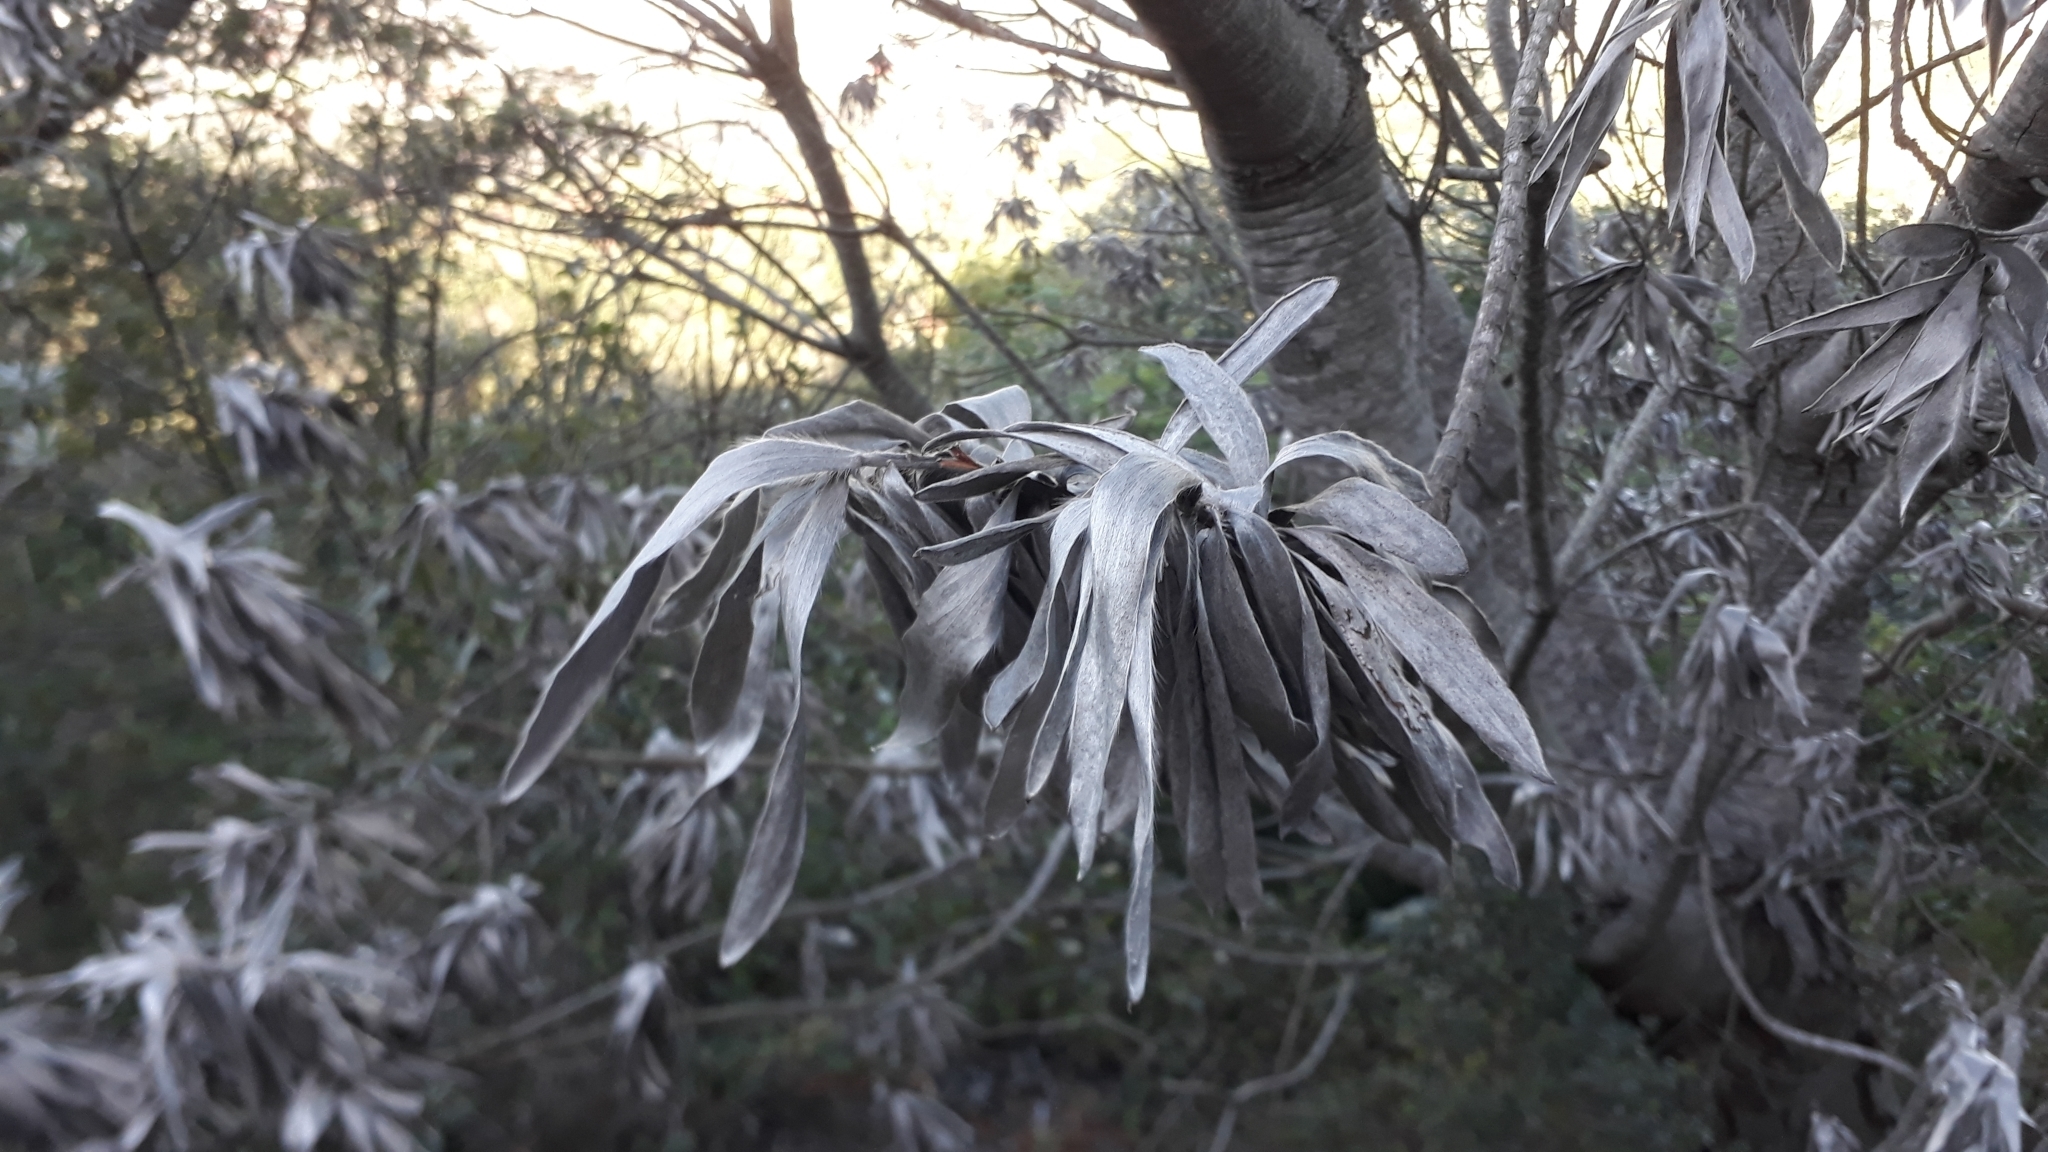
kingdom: Plantae
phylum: Tracheophyta
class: Magnoliopsida
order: Proteales
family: Proteaceae
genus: Leucadendron
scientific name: Leucadendron argenteum
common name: Cape silver tree
